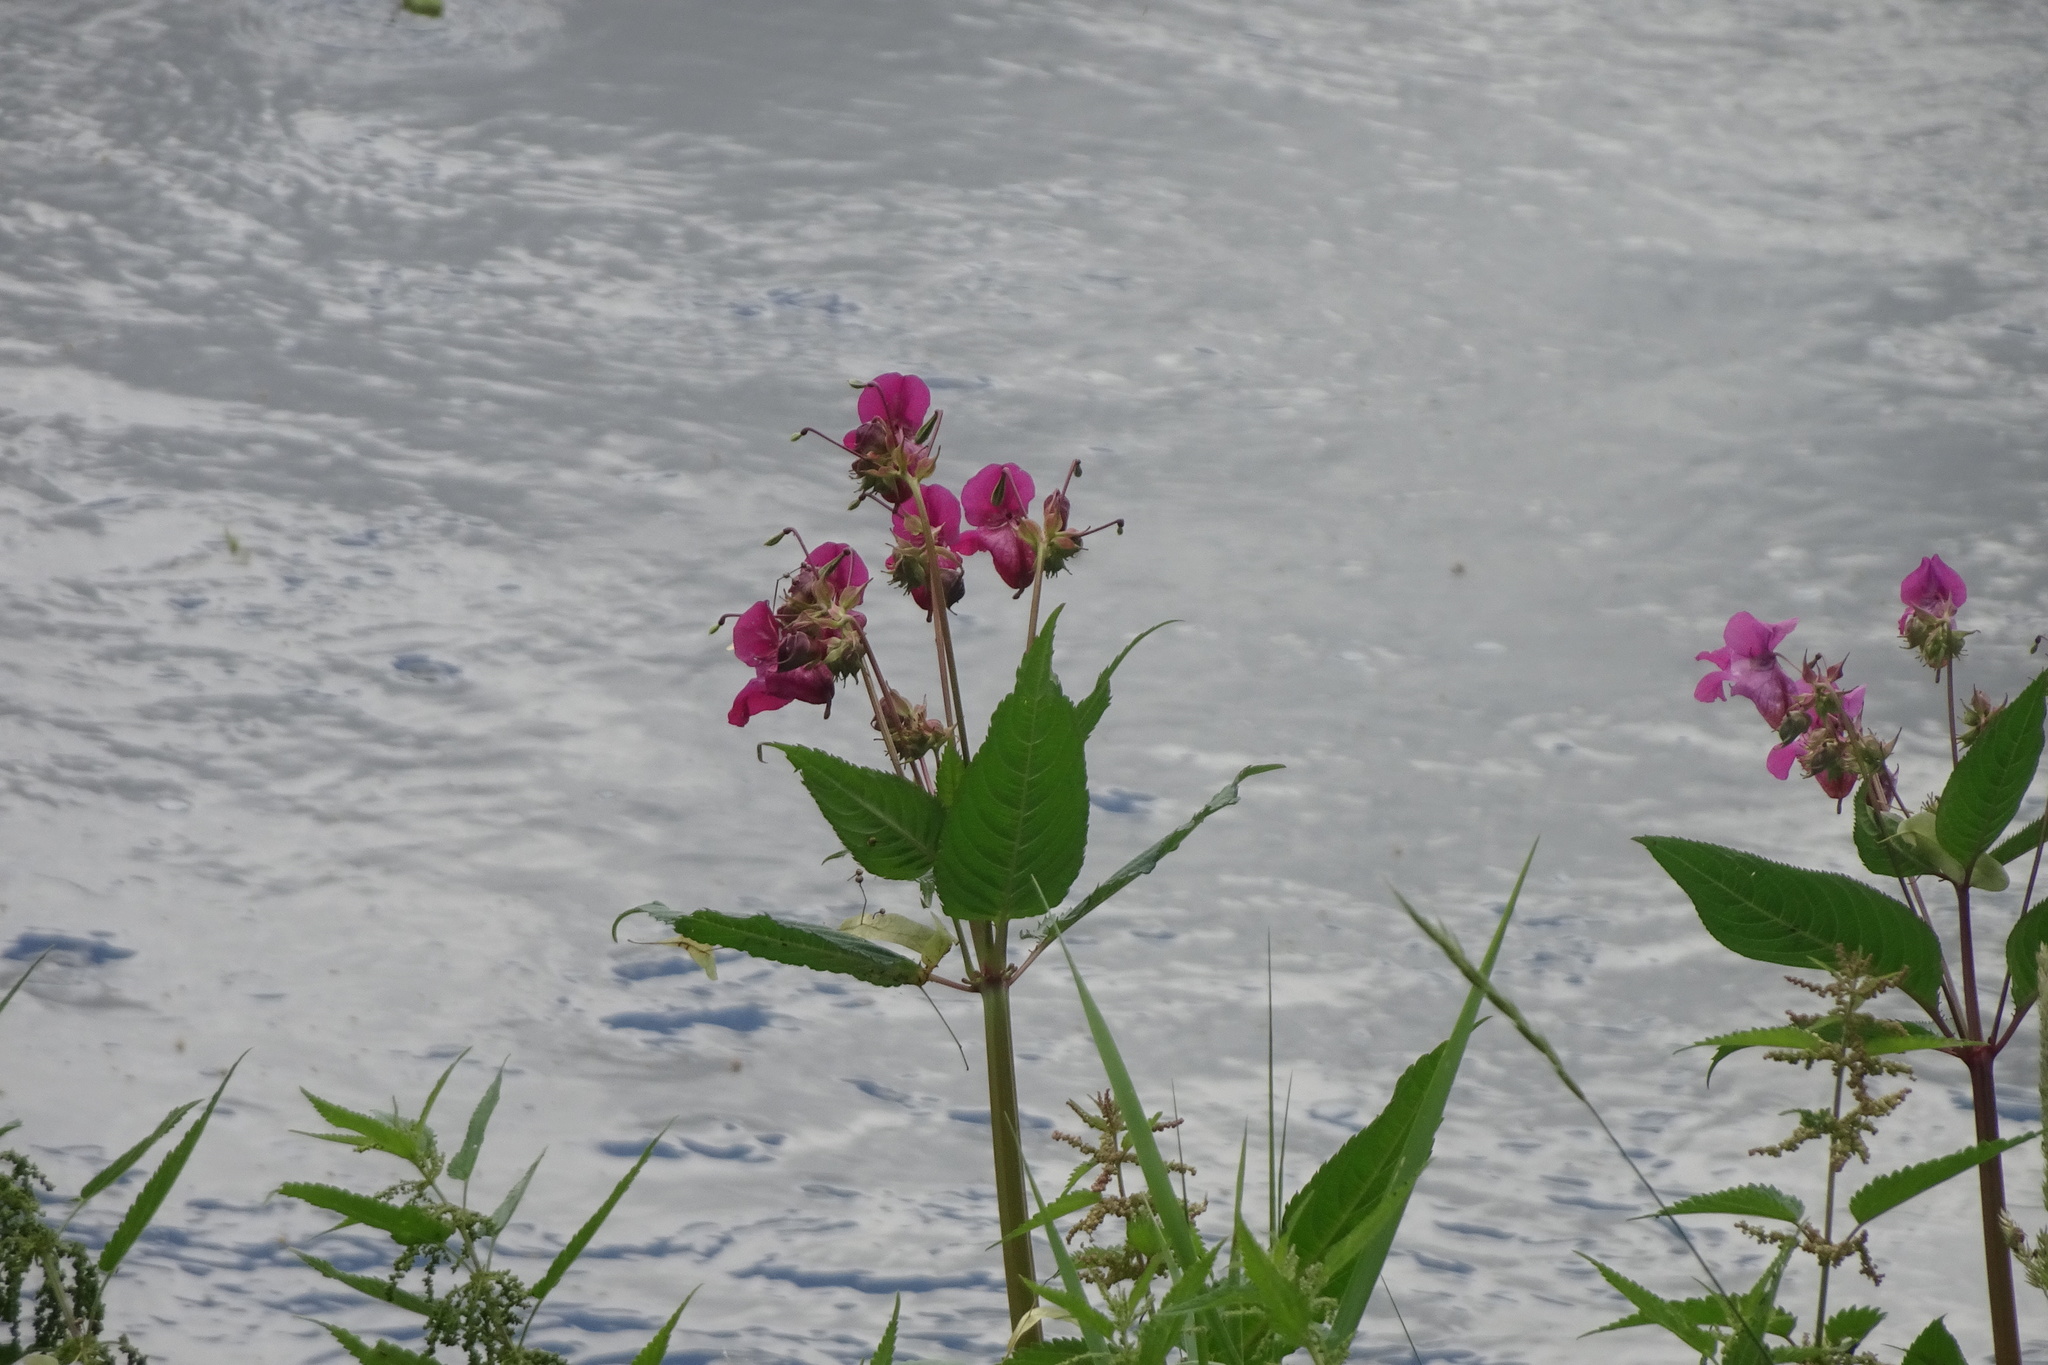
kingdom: Plantae
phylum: Tracheophyta
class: Magnoliopsida
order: Ericales
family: Balsaminaceae
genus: Impatiens
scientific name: Impatiens glandulifera
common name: Himalayan balsam
